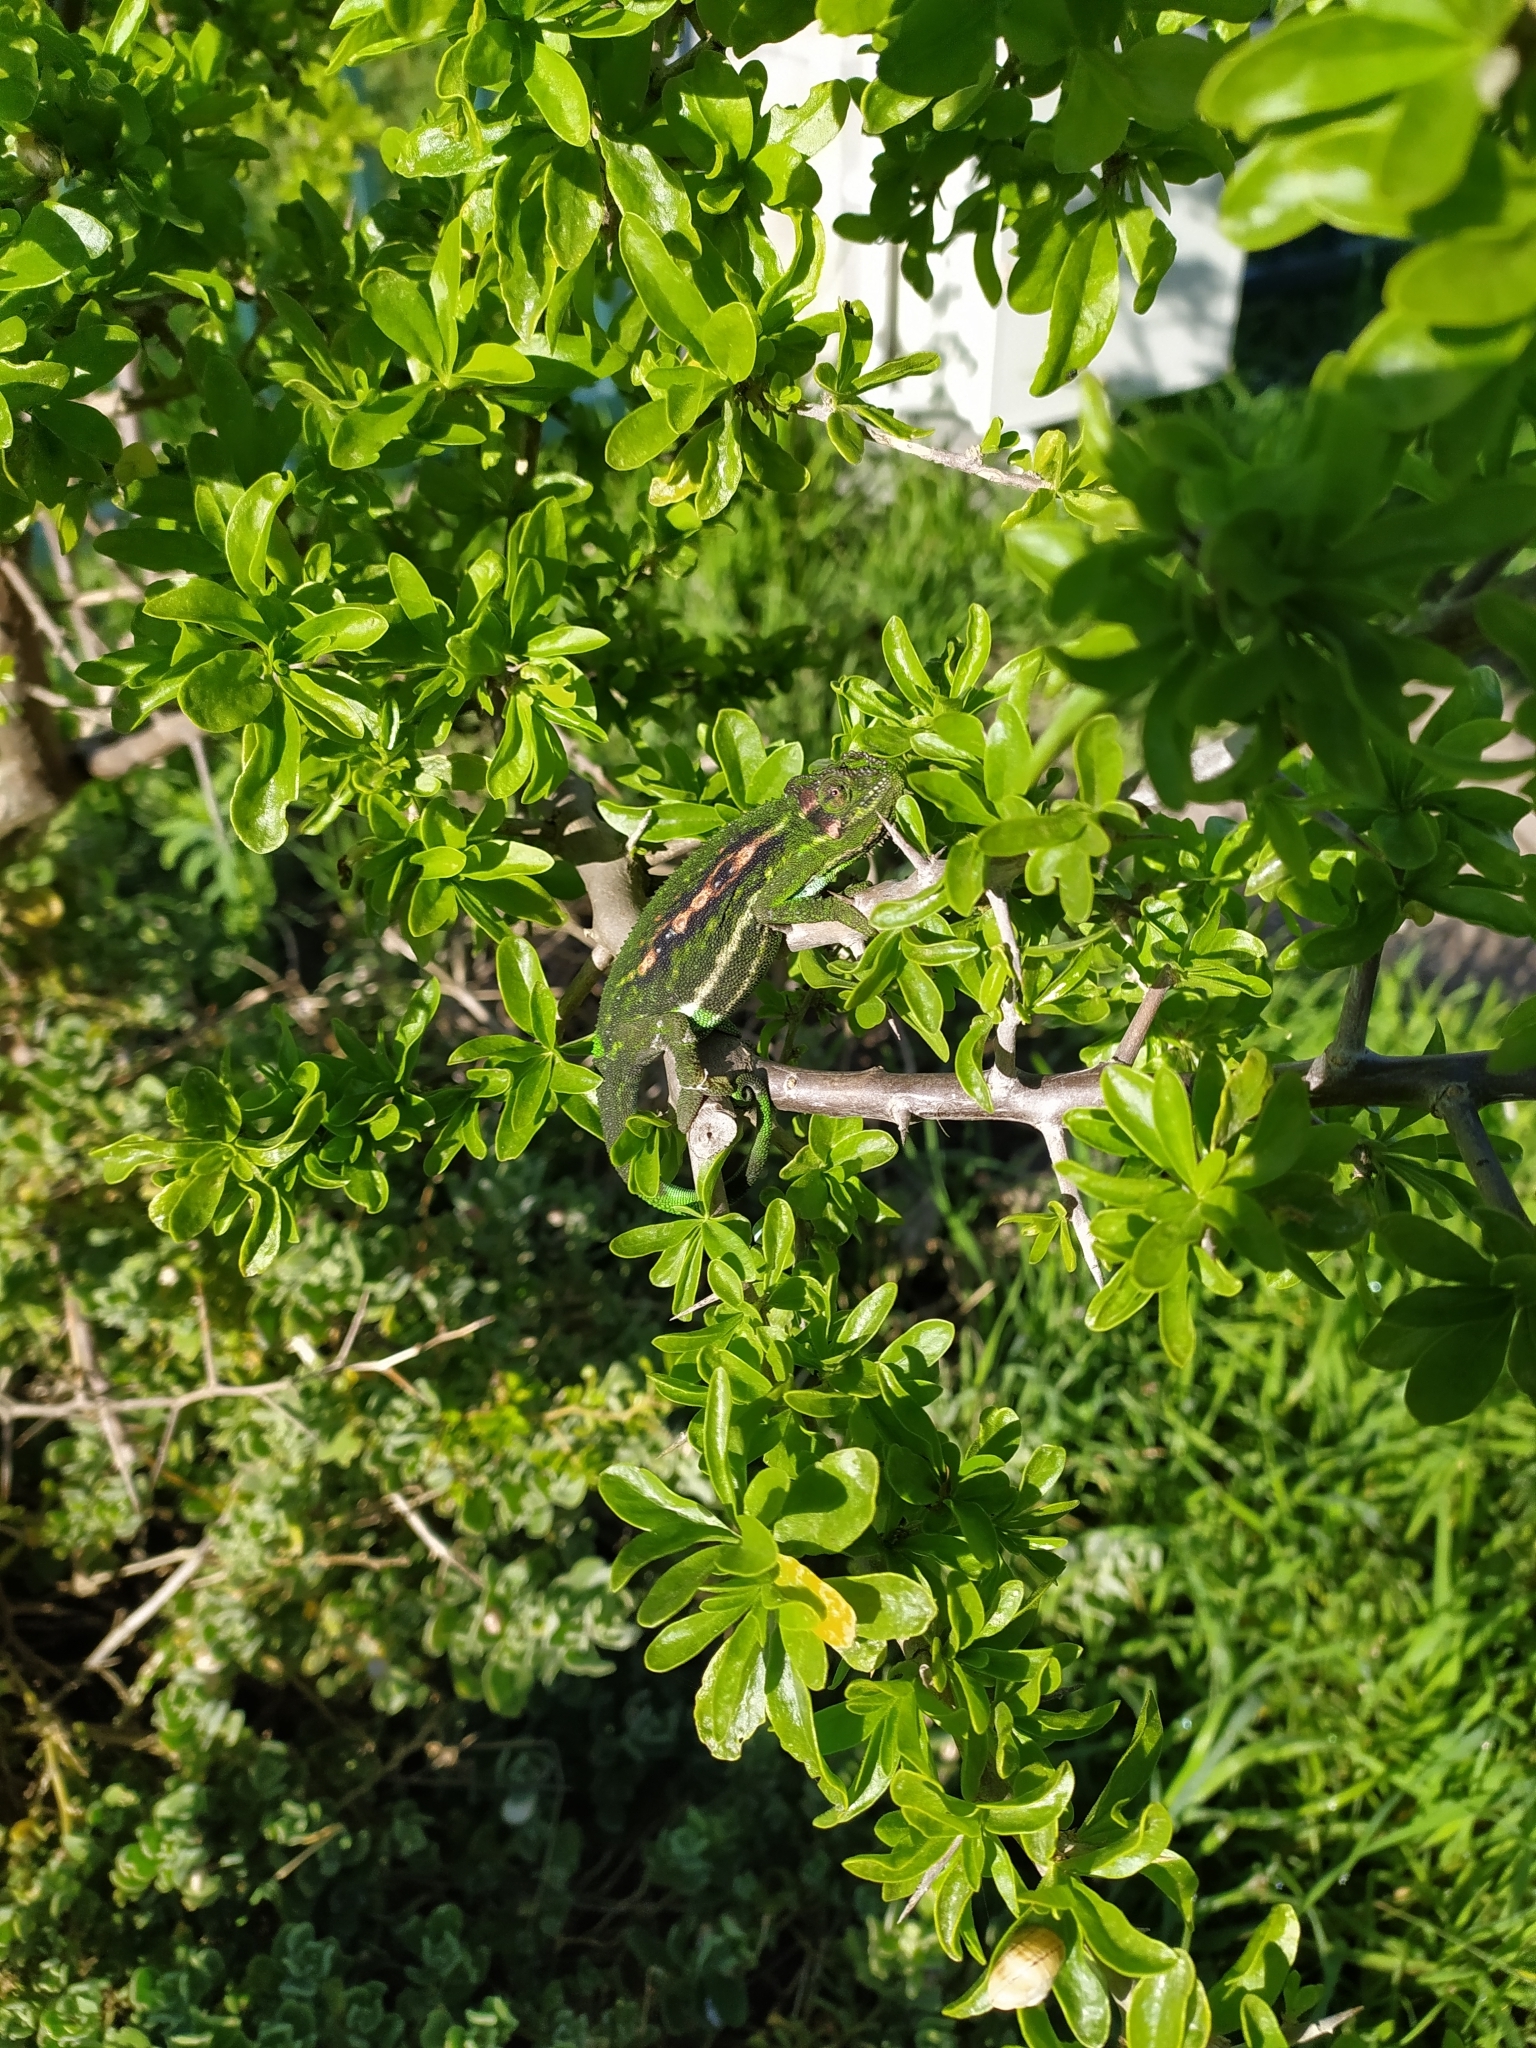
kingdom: Animalia
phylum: Chordata
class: Squamata
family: Chamaeleonidae
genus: Bradypodion
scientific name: Bradypodion pumilum
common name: Cape dwarf chameleon
